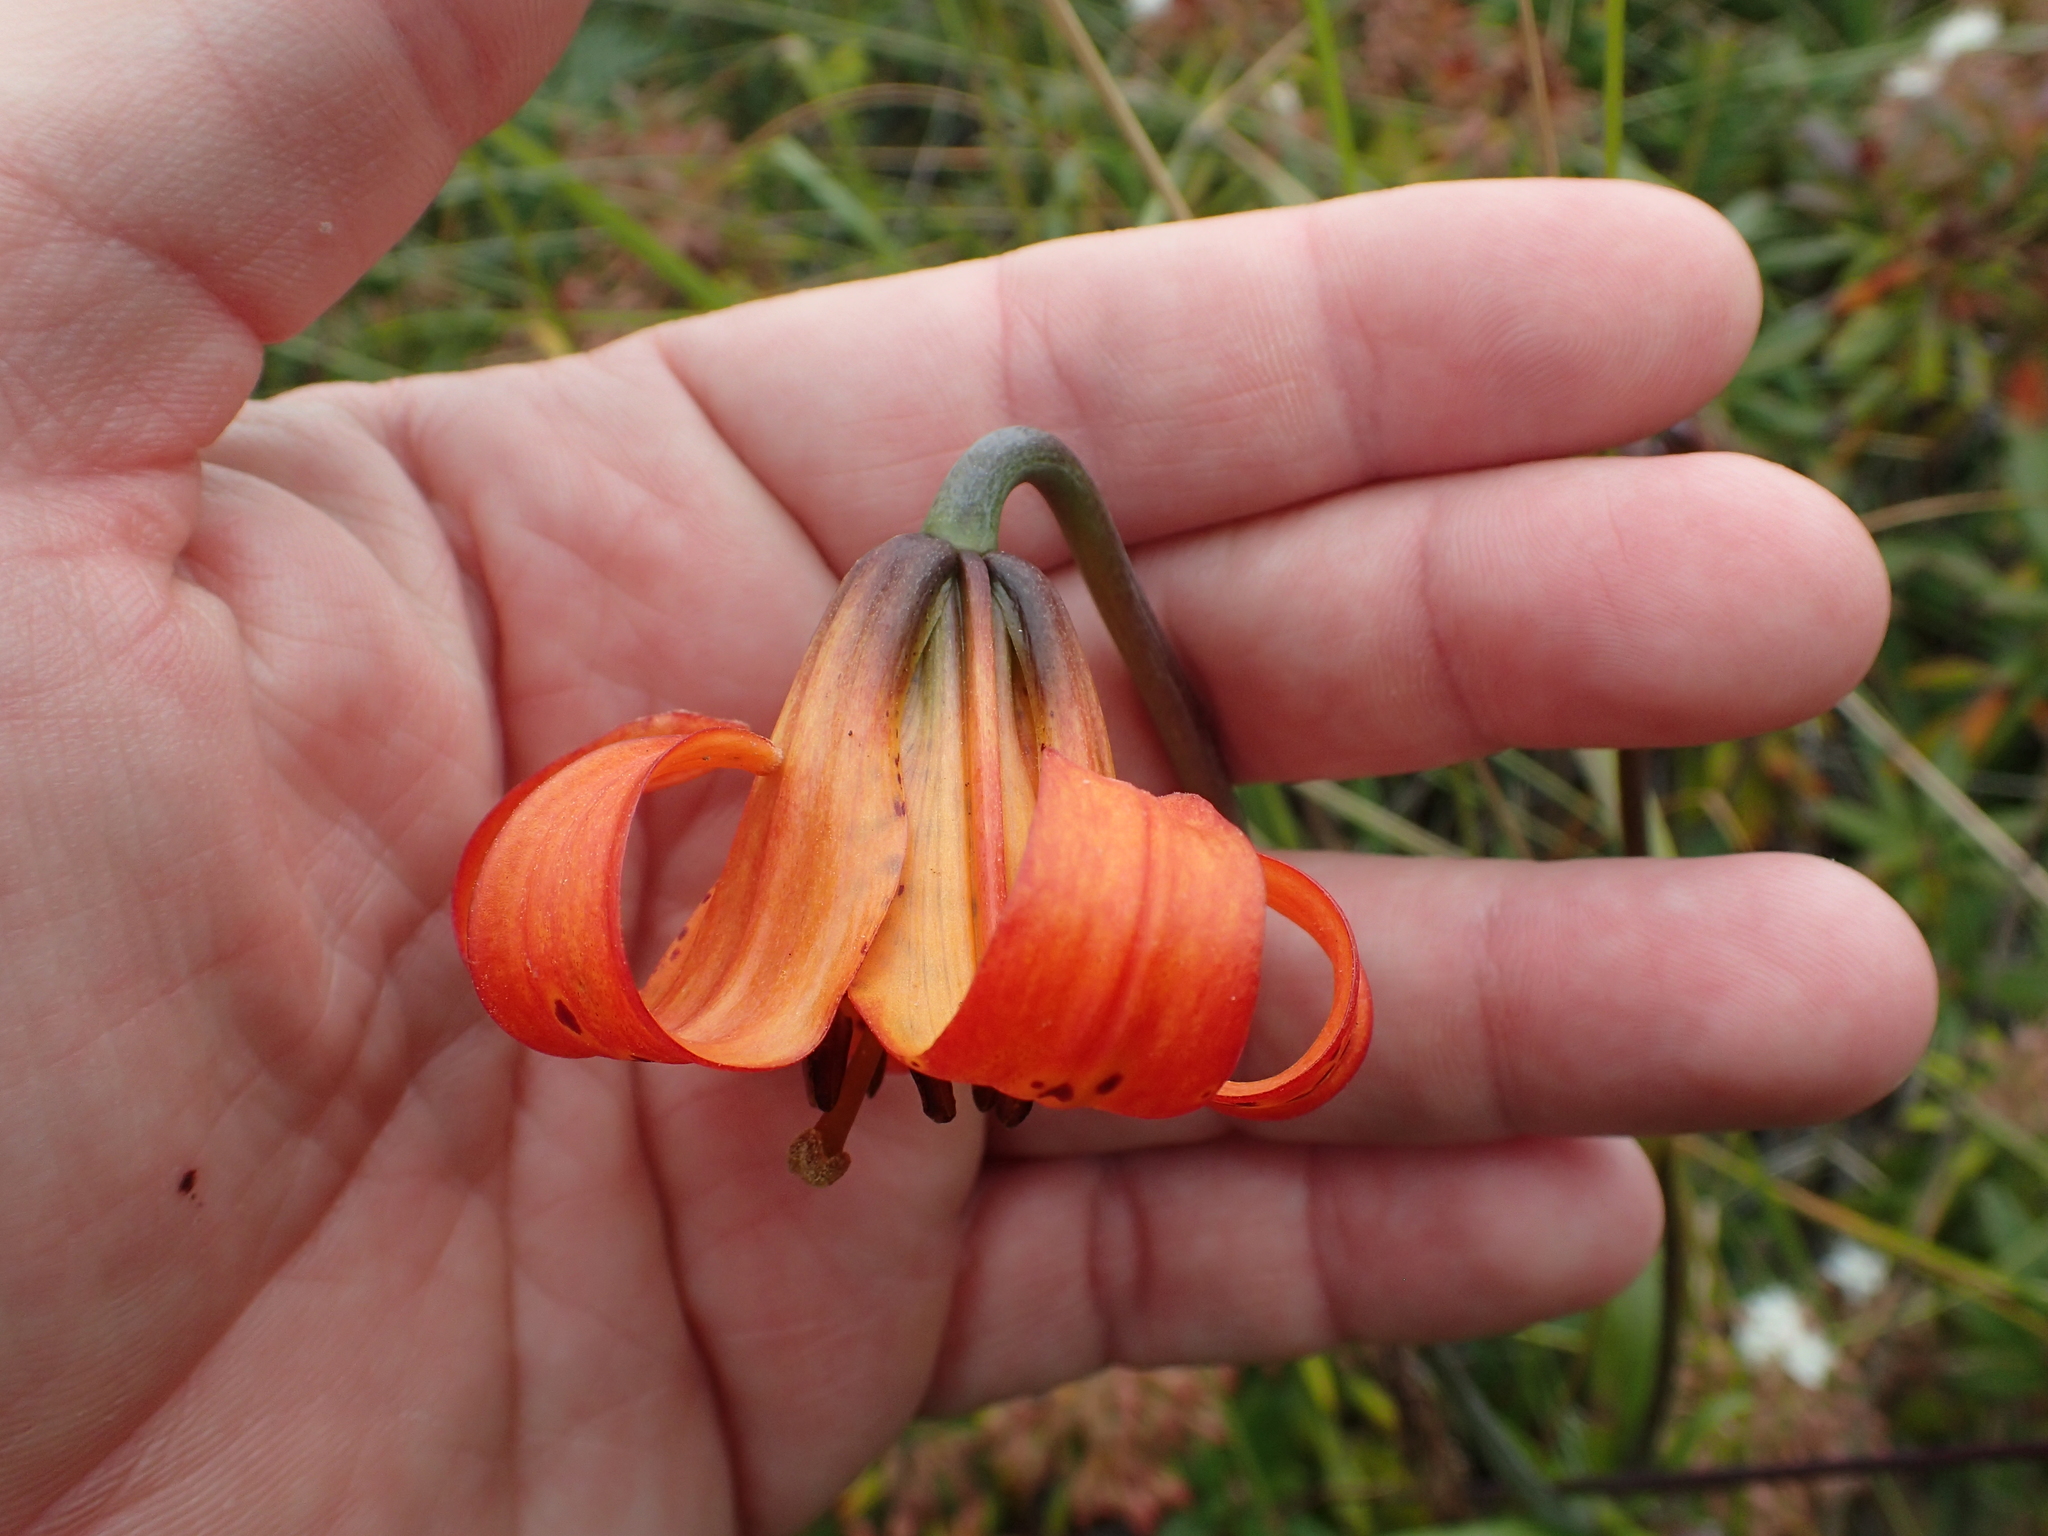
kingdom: Plantae
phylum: Tracheophyta
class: Liliopsida
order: Liliales
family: Liliaceae
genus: Lilium
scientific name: Lilium maritimum
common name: Coastal lily
